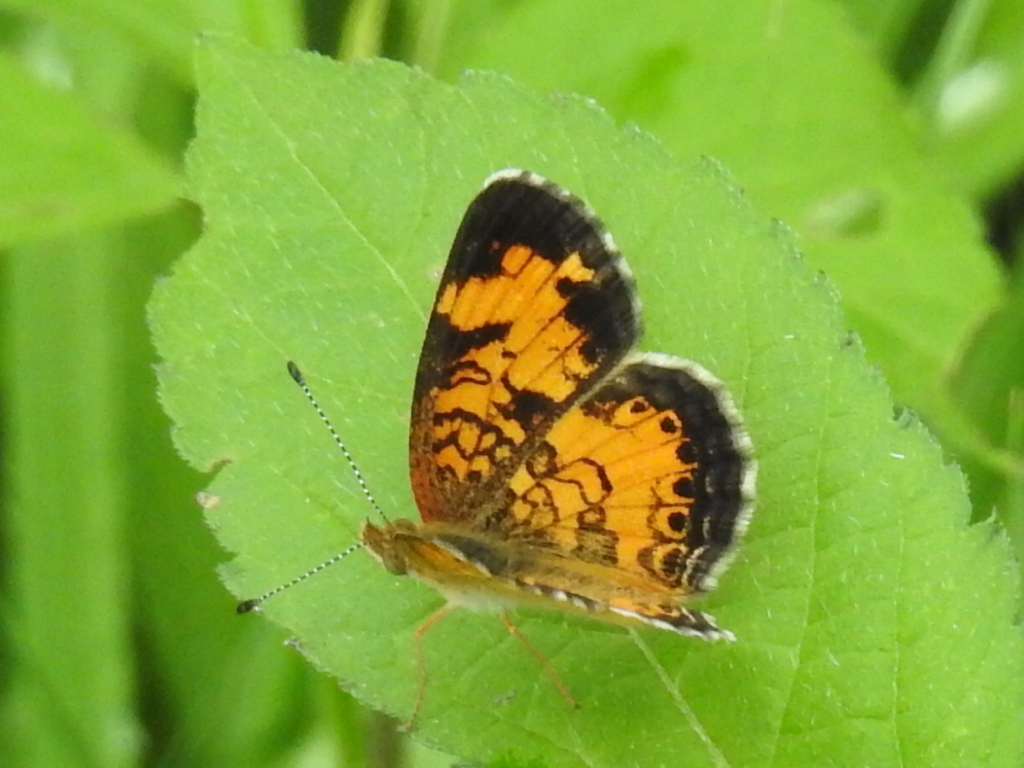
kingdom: Animalia
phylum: Arthropoda
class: Insecta
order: Lepidoptera
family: Nymphalidae
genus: Phyciodes
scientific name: Phyciodes tharos
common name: Pearl crescent
